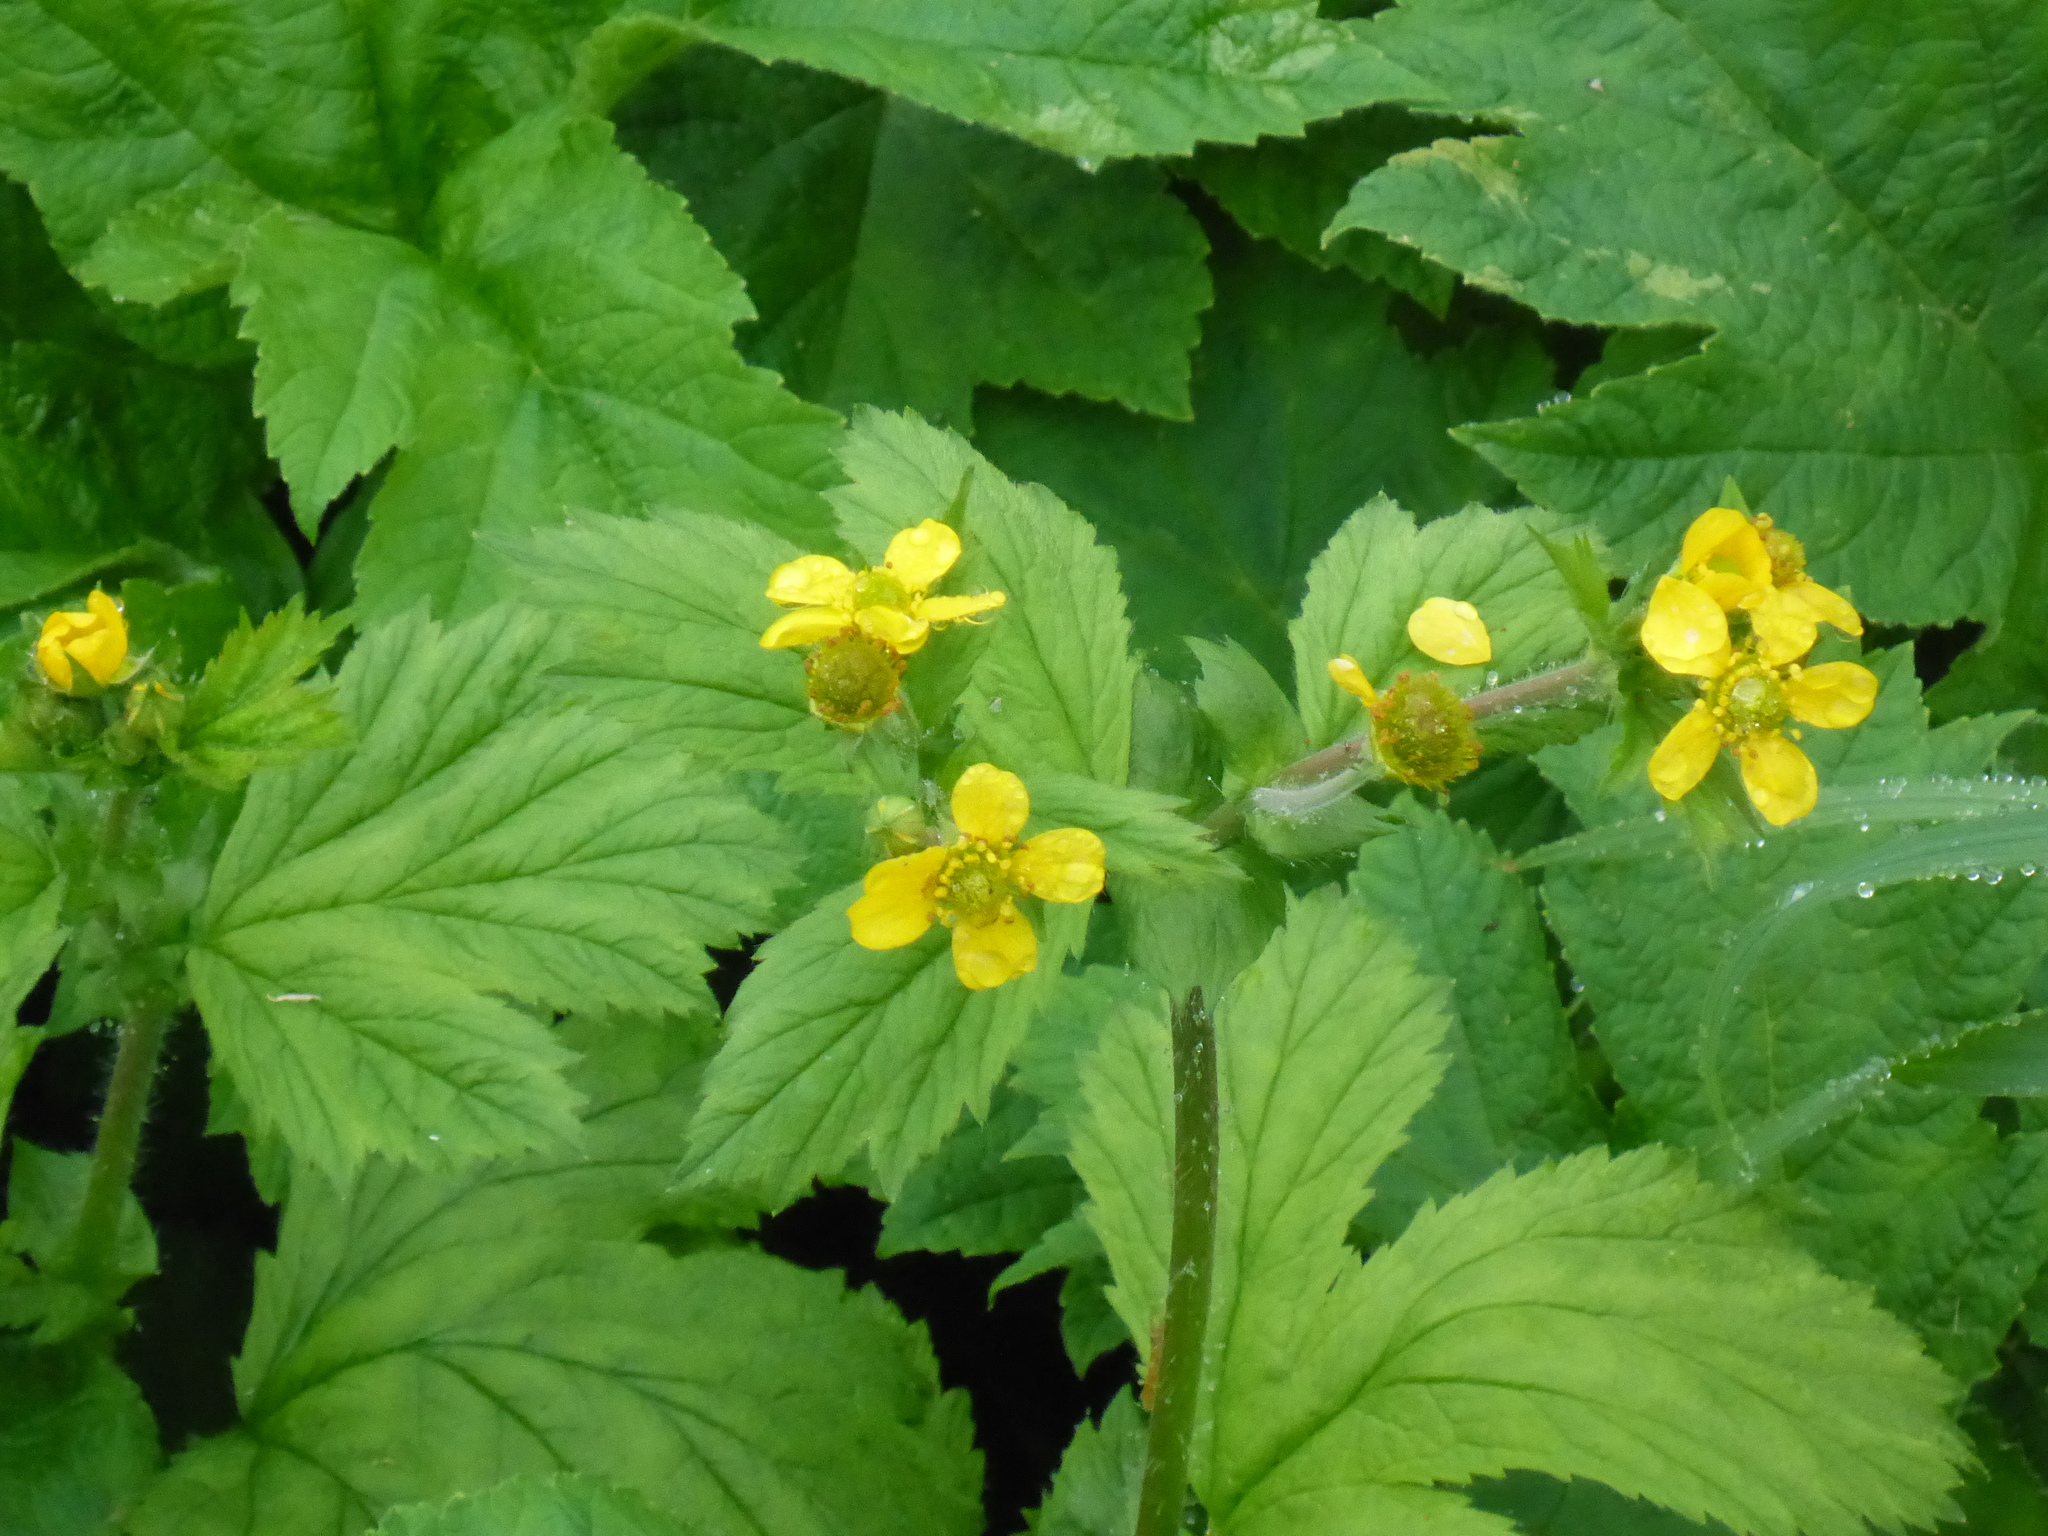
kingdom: Plantae
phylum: Tracheophyta
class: Magnoliopsida
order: Rosales
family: Rosaceae
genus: Geum
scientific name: Geum macrophyllum
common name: Large-leaved avens
